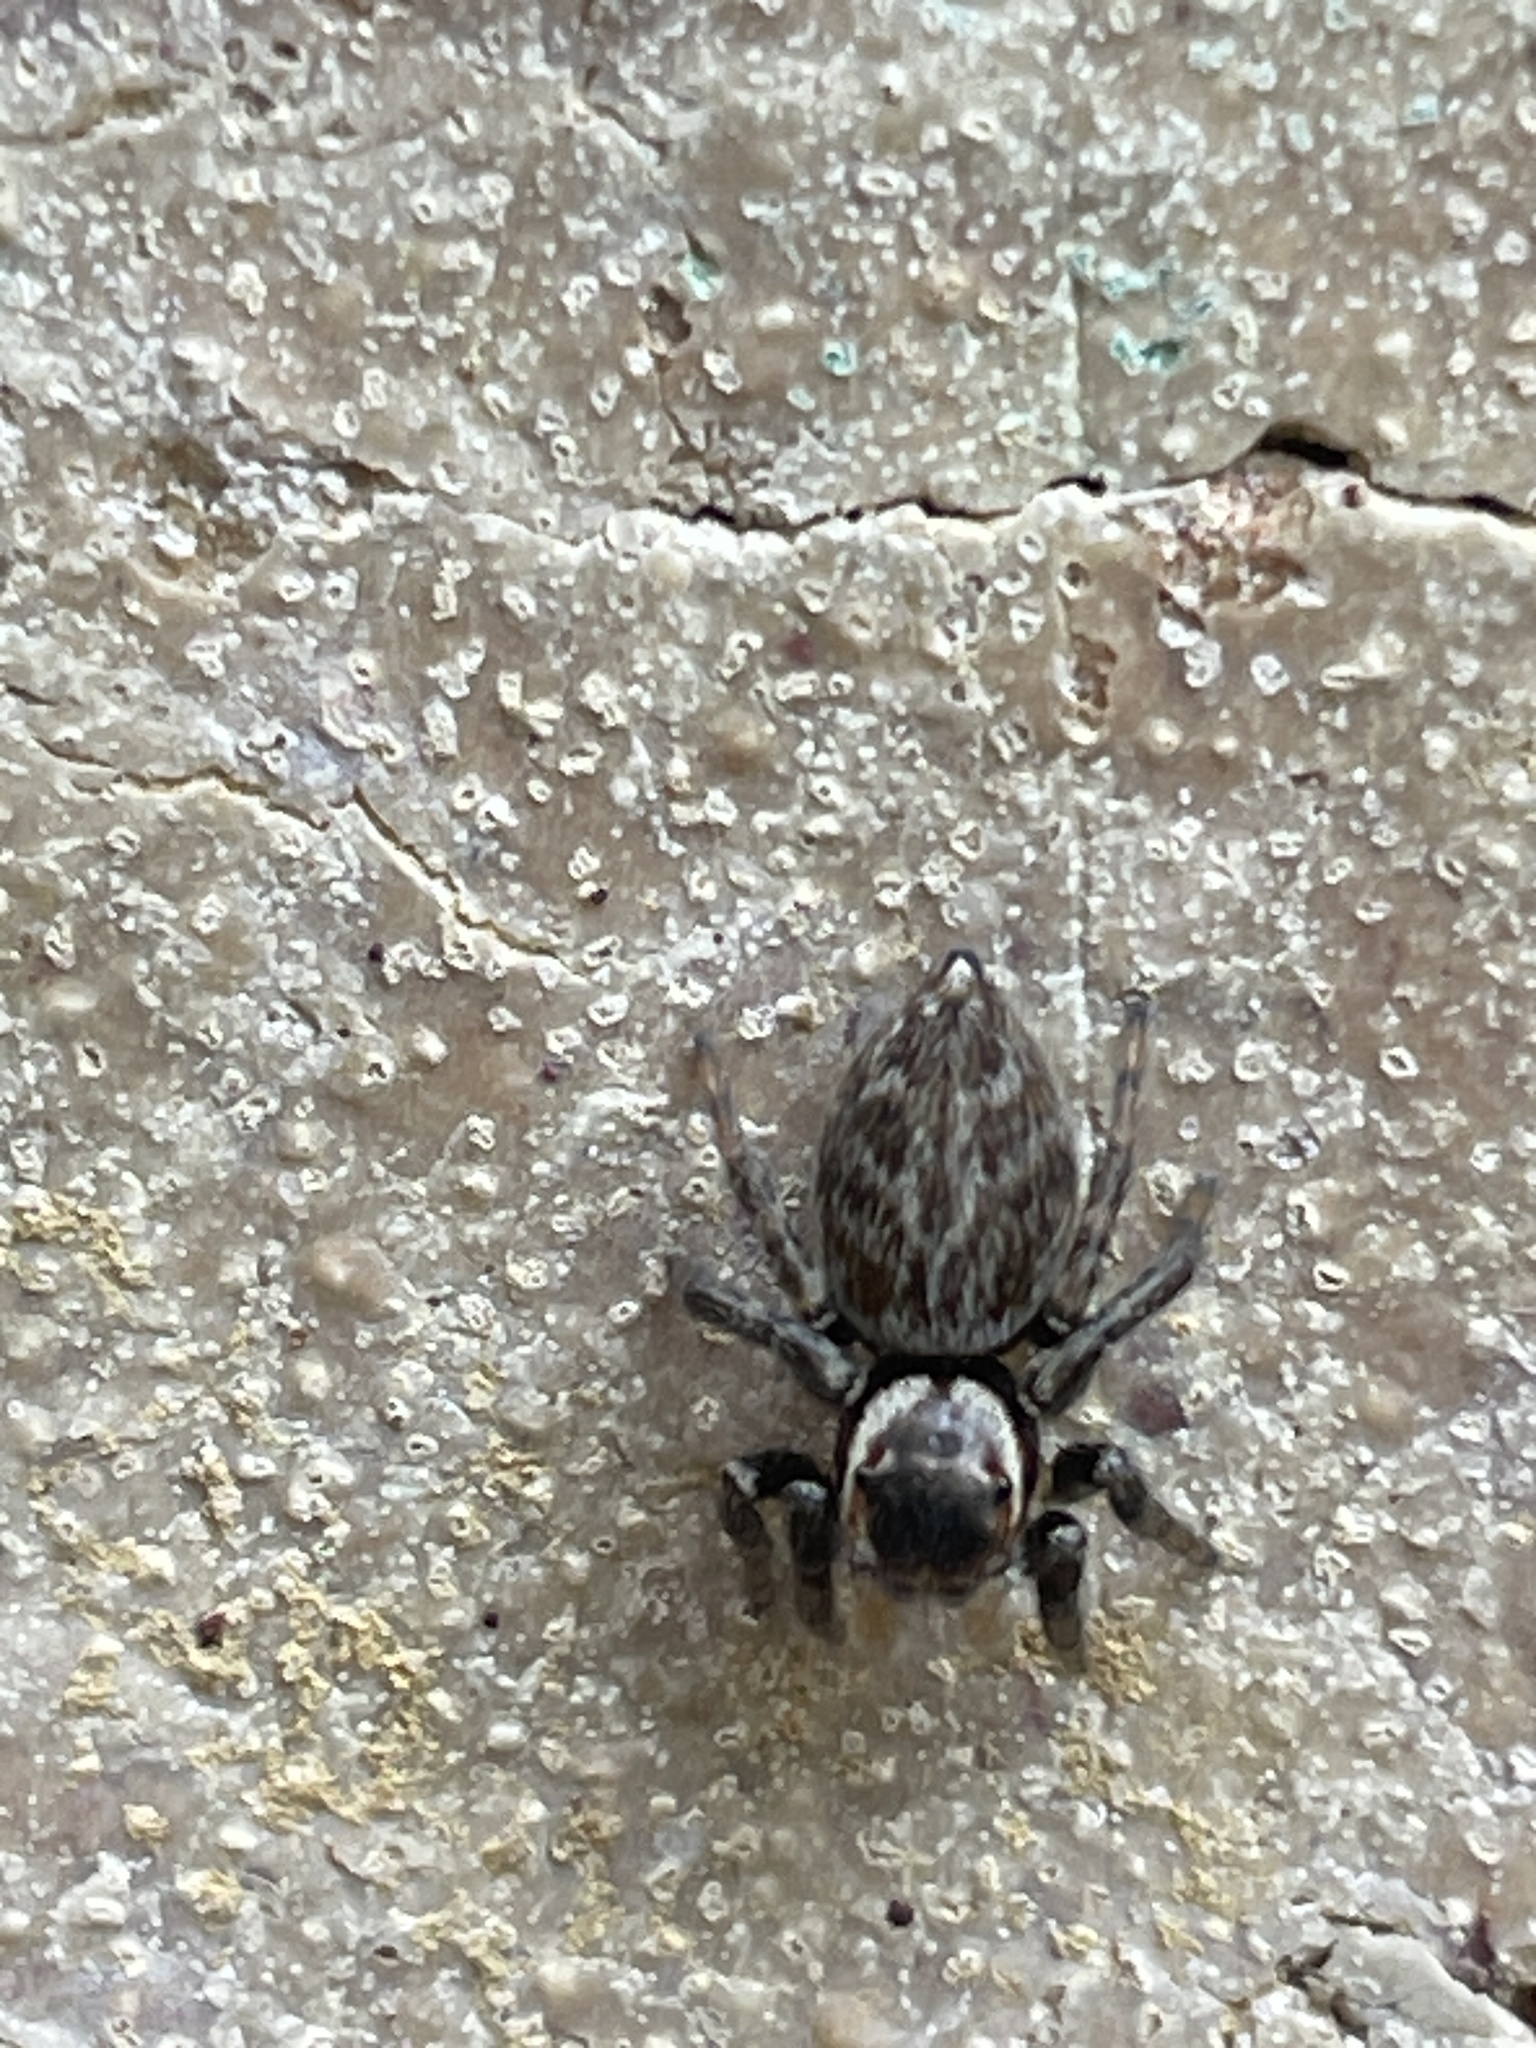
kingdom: Animalia
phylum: Arthropoda
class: Arachnida
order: Araneae
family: Salticidae
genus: Maratus
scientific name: Maratus griseus
